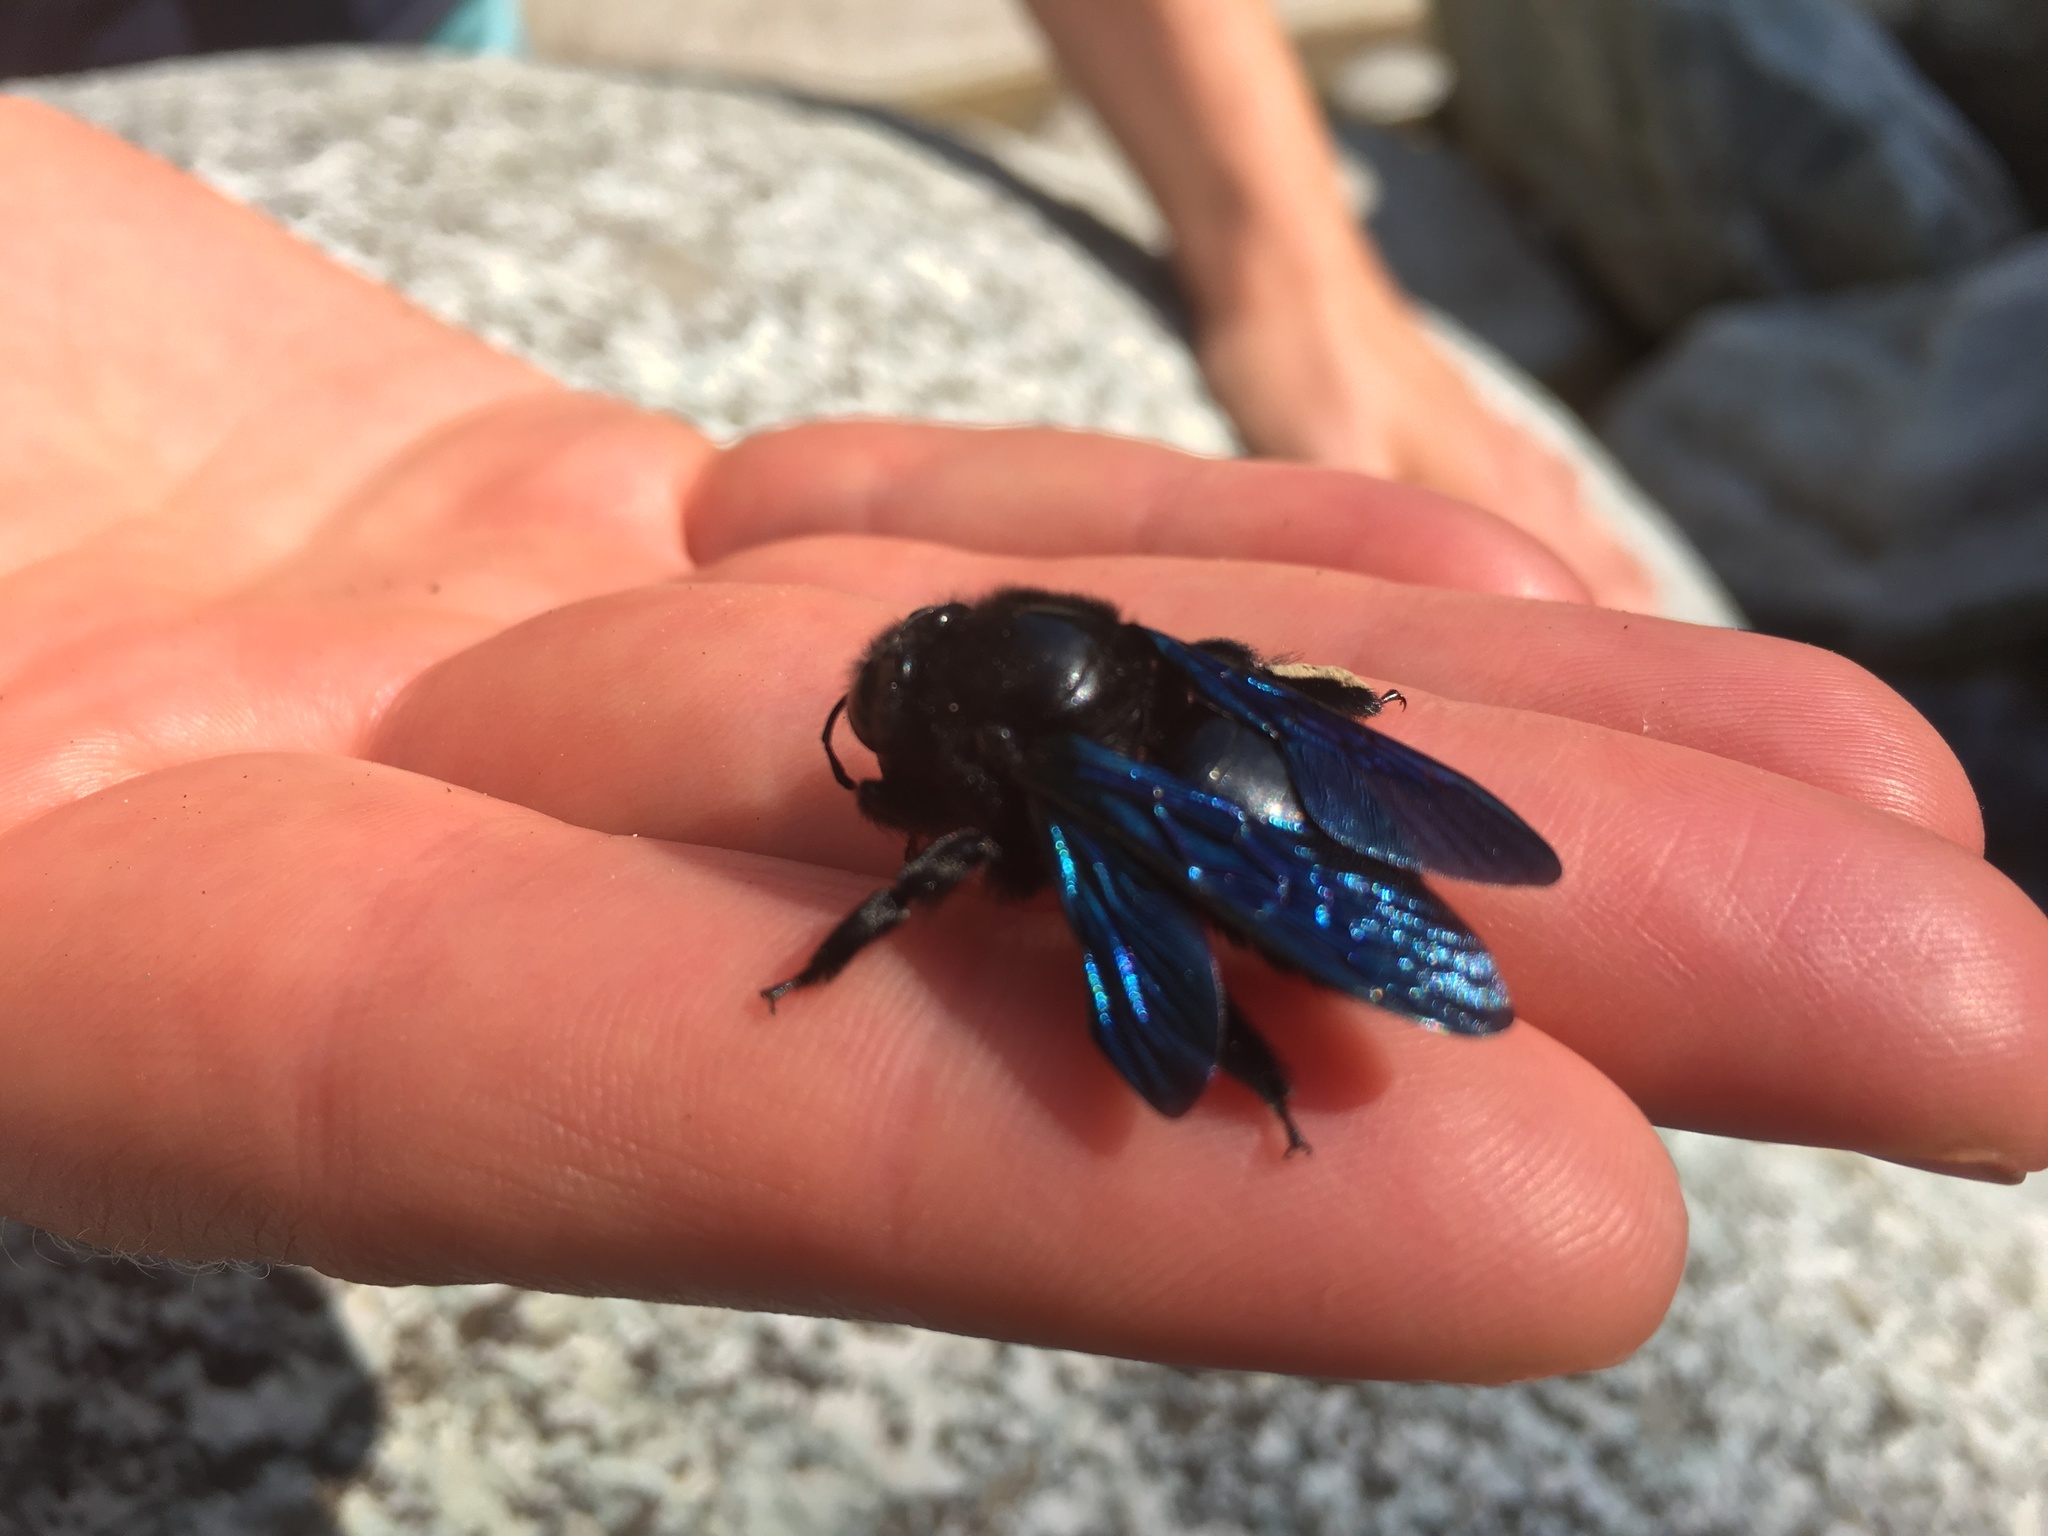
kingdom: Animalia
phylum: Arthropoda
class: Insecta
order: Hymenoptera
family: Apidae
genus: Xylocopa
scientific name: Xylocopa violacea
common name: Violet carpenter bee
